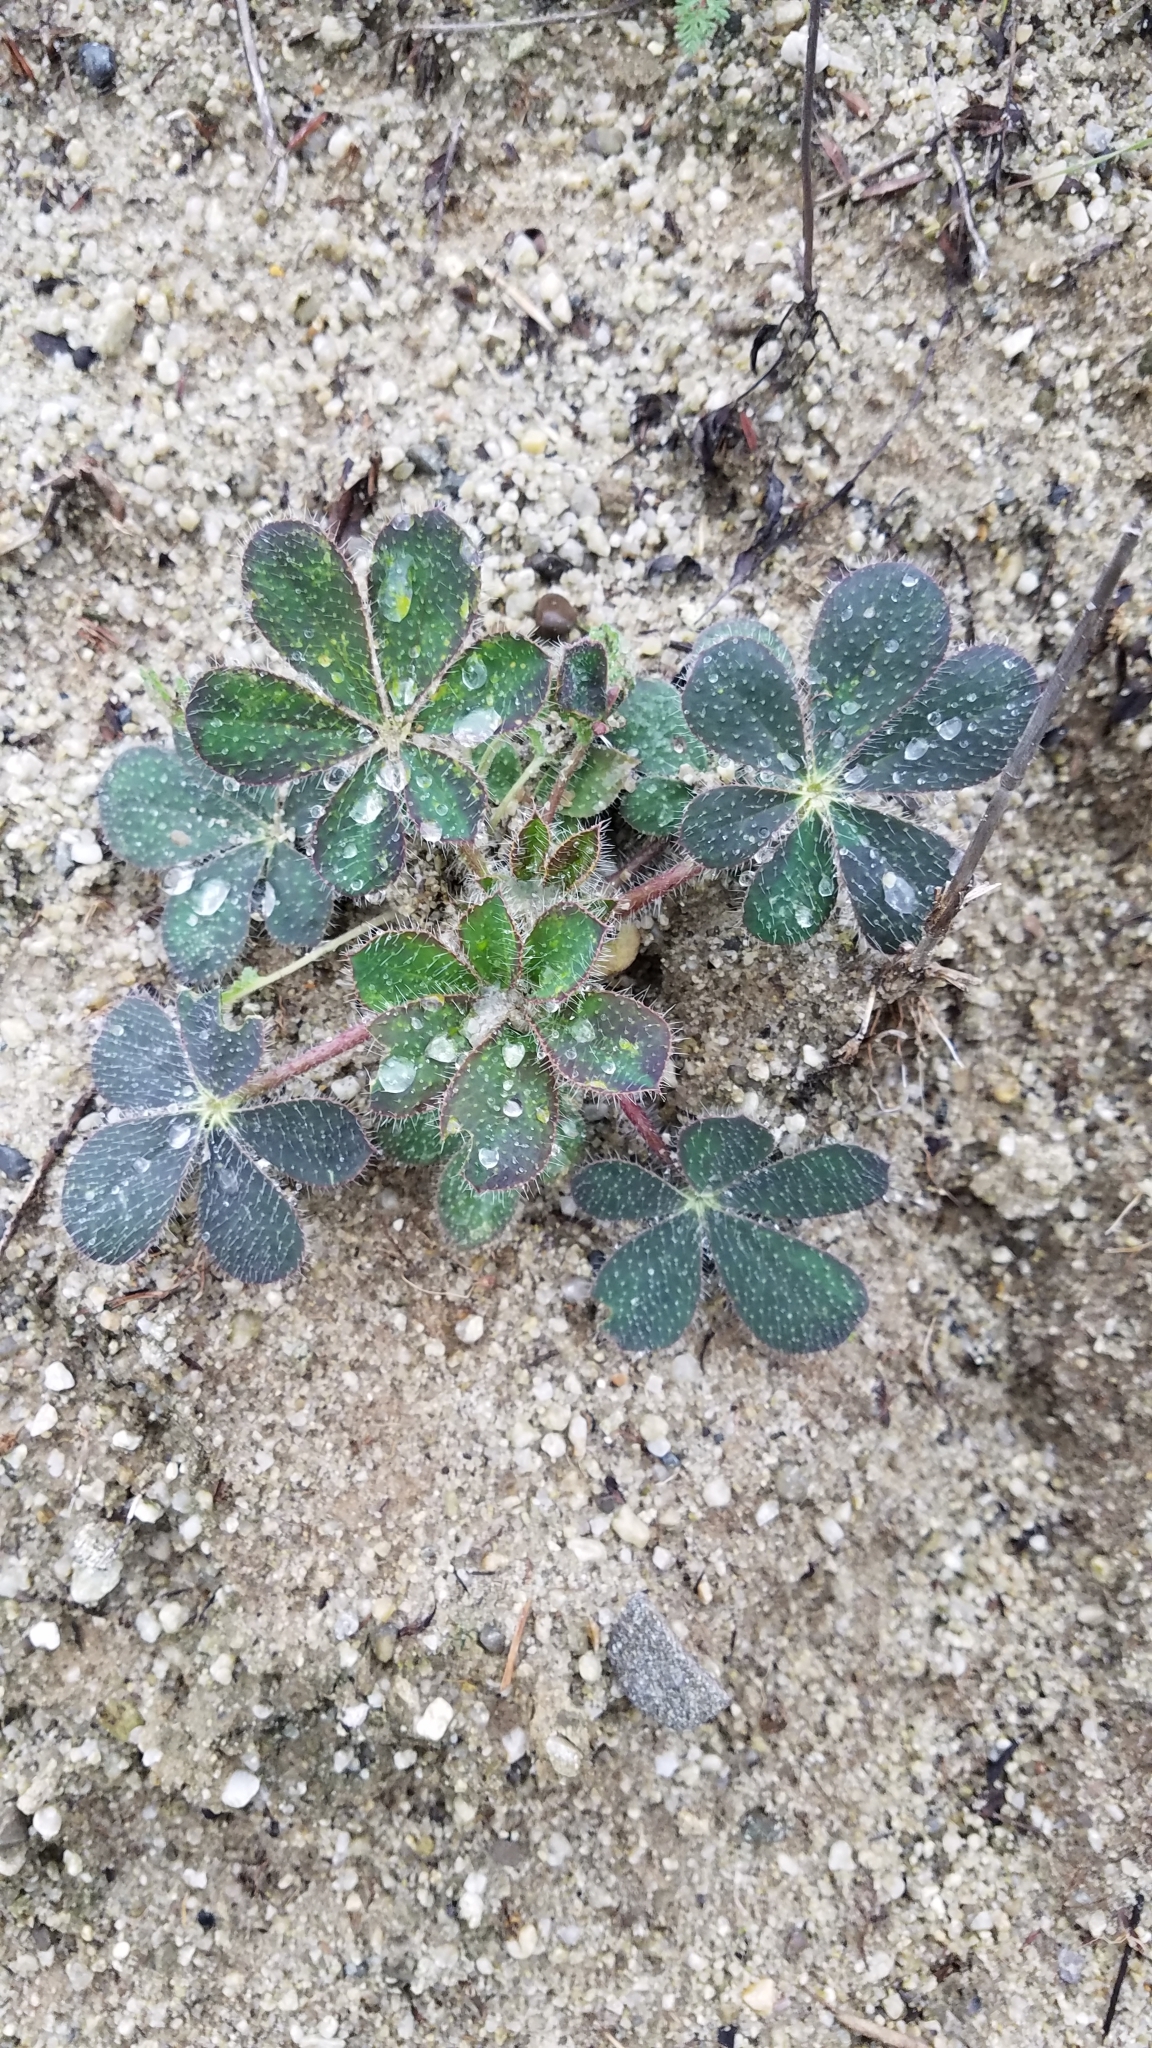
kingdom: Plantae
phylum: Tracheophyta
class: Magnoliopsida
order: Fabales
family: Fabaceae
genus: Lupinus
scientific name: Lupinus hirsutissimus
